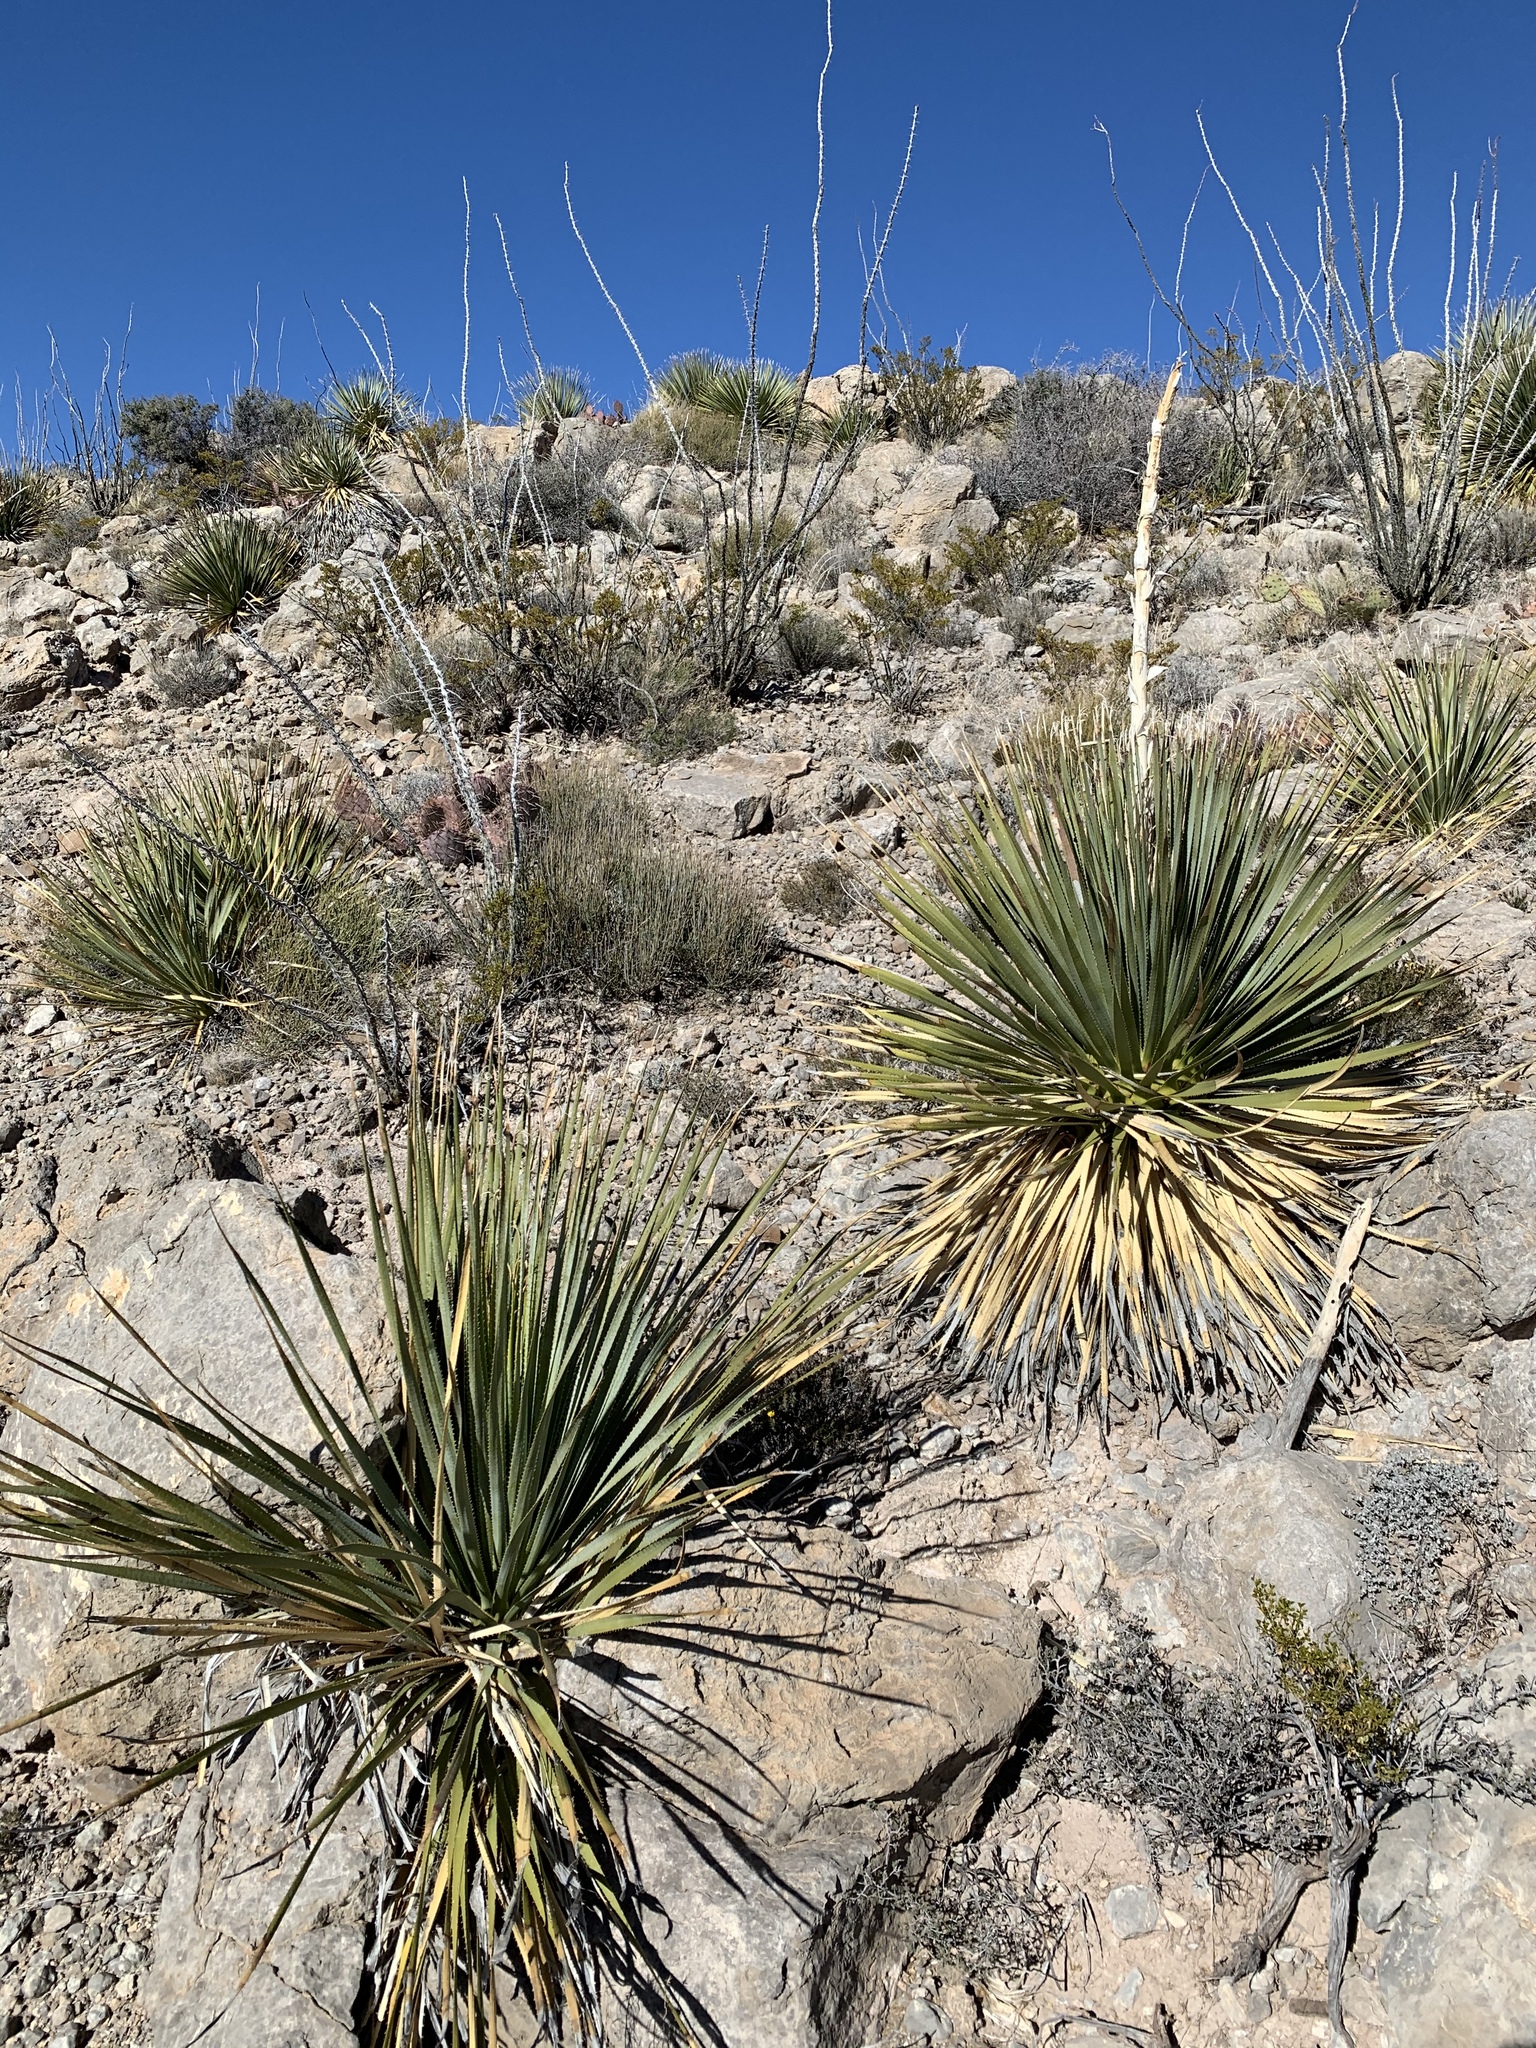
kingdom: Plantae
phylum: Tracheophyta
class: Liliopsida
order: Asparagales
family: Asparagaceae
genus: Dasylirion
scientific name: Dasylirion wheeleri
